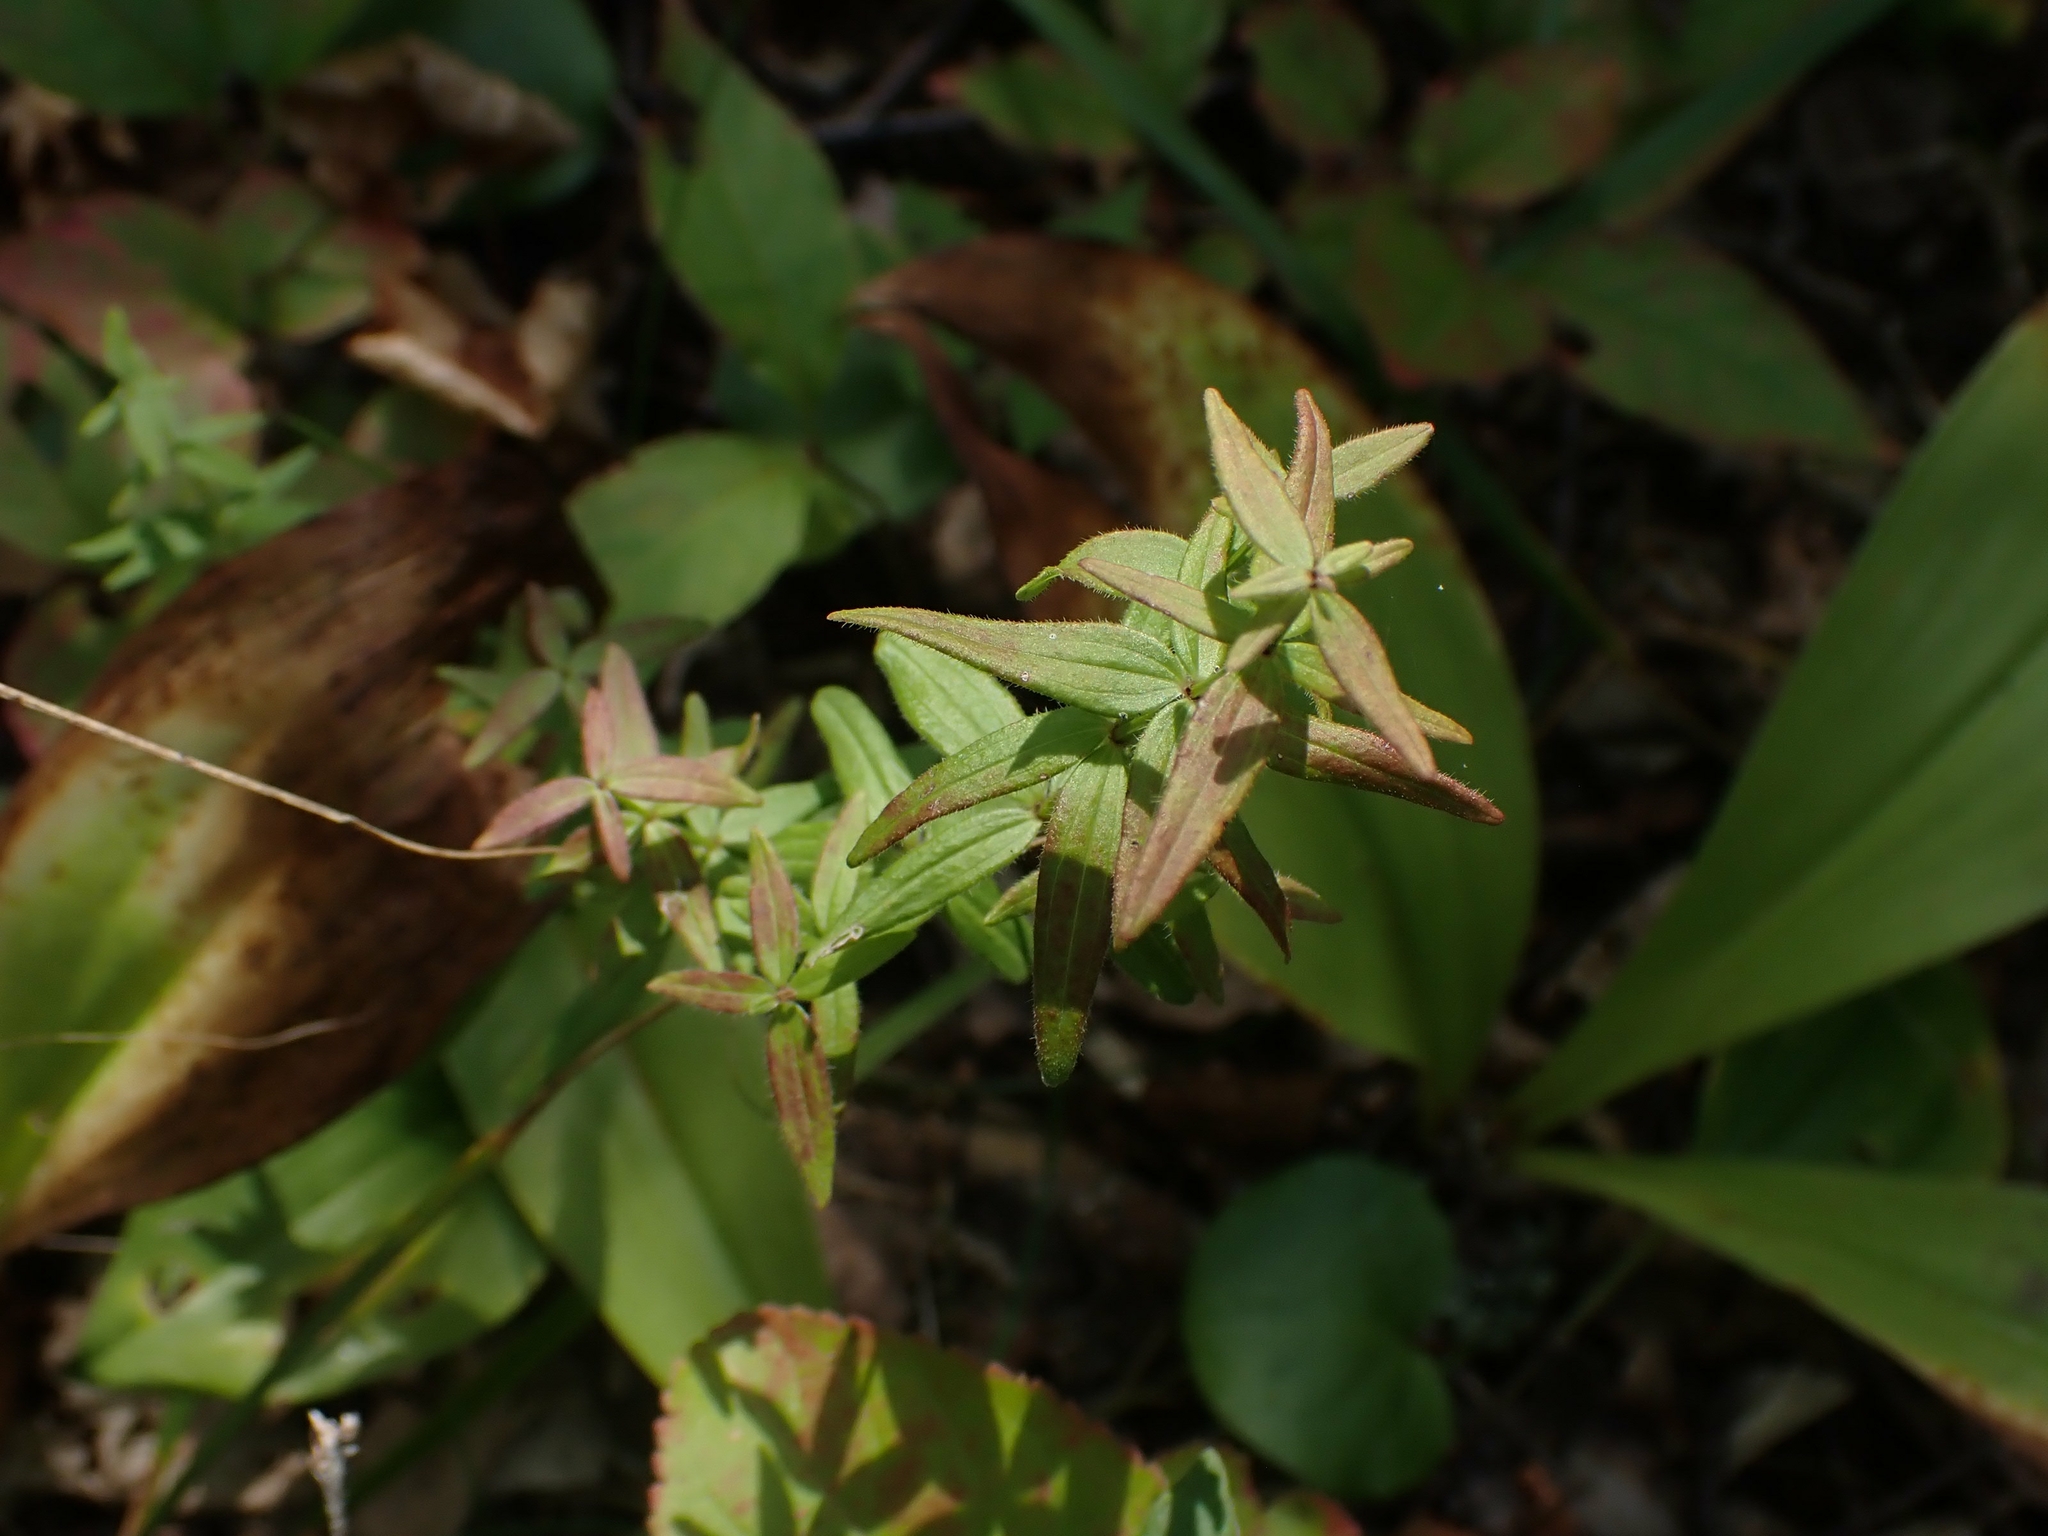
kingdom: Plantae
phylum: Tracheophyta
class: Magnoliopsida
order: Gentianales
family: Rubiaceae
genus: Galium
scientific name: Galium boreale
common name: Northern bedstraw
